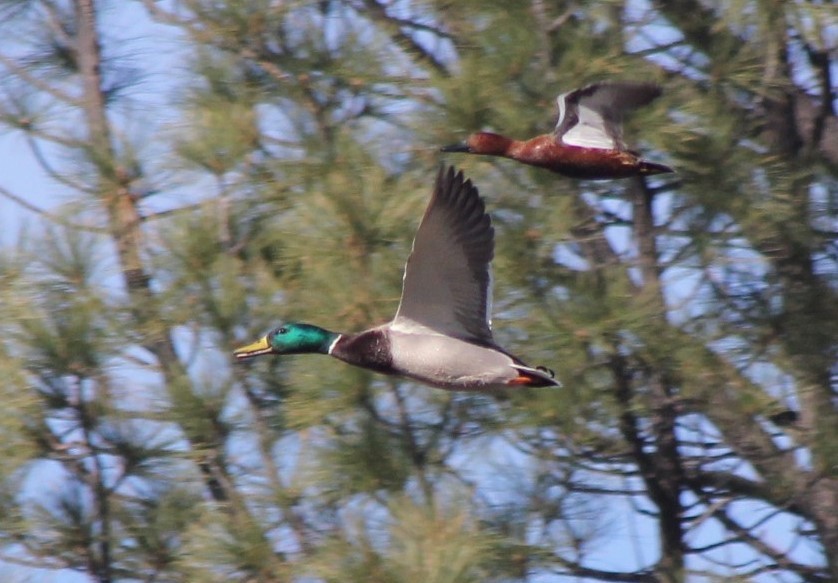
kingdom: Animalia
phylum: Chordata
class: Aves
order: Anseriformes
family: Anatidae
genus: Spatula
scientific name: Spatula cyanoptera
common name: Cinnamon teal
